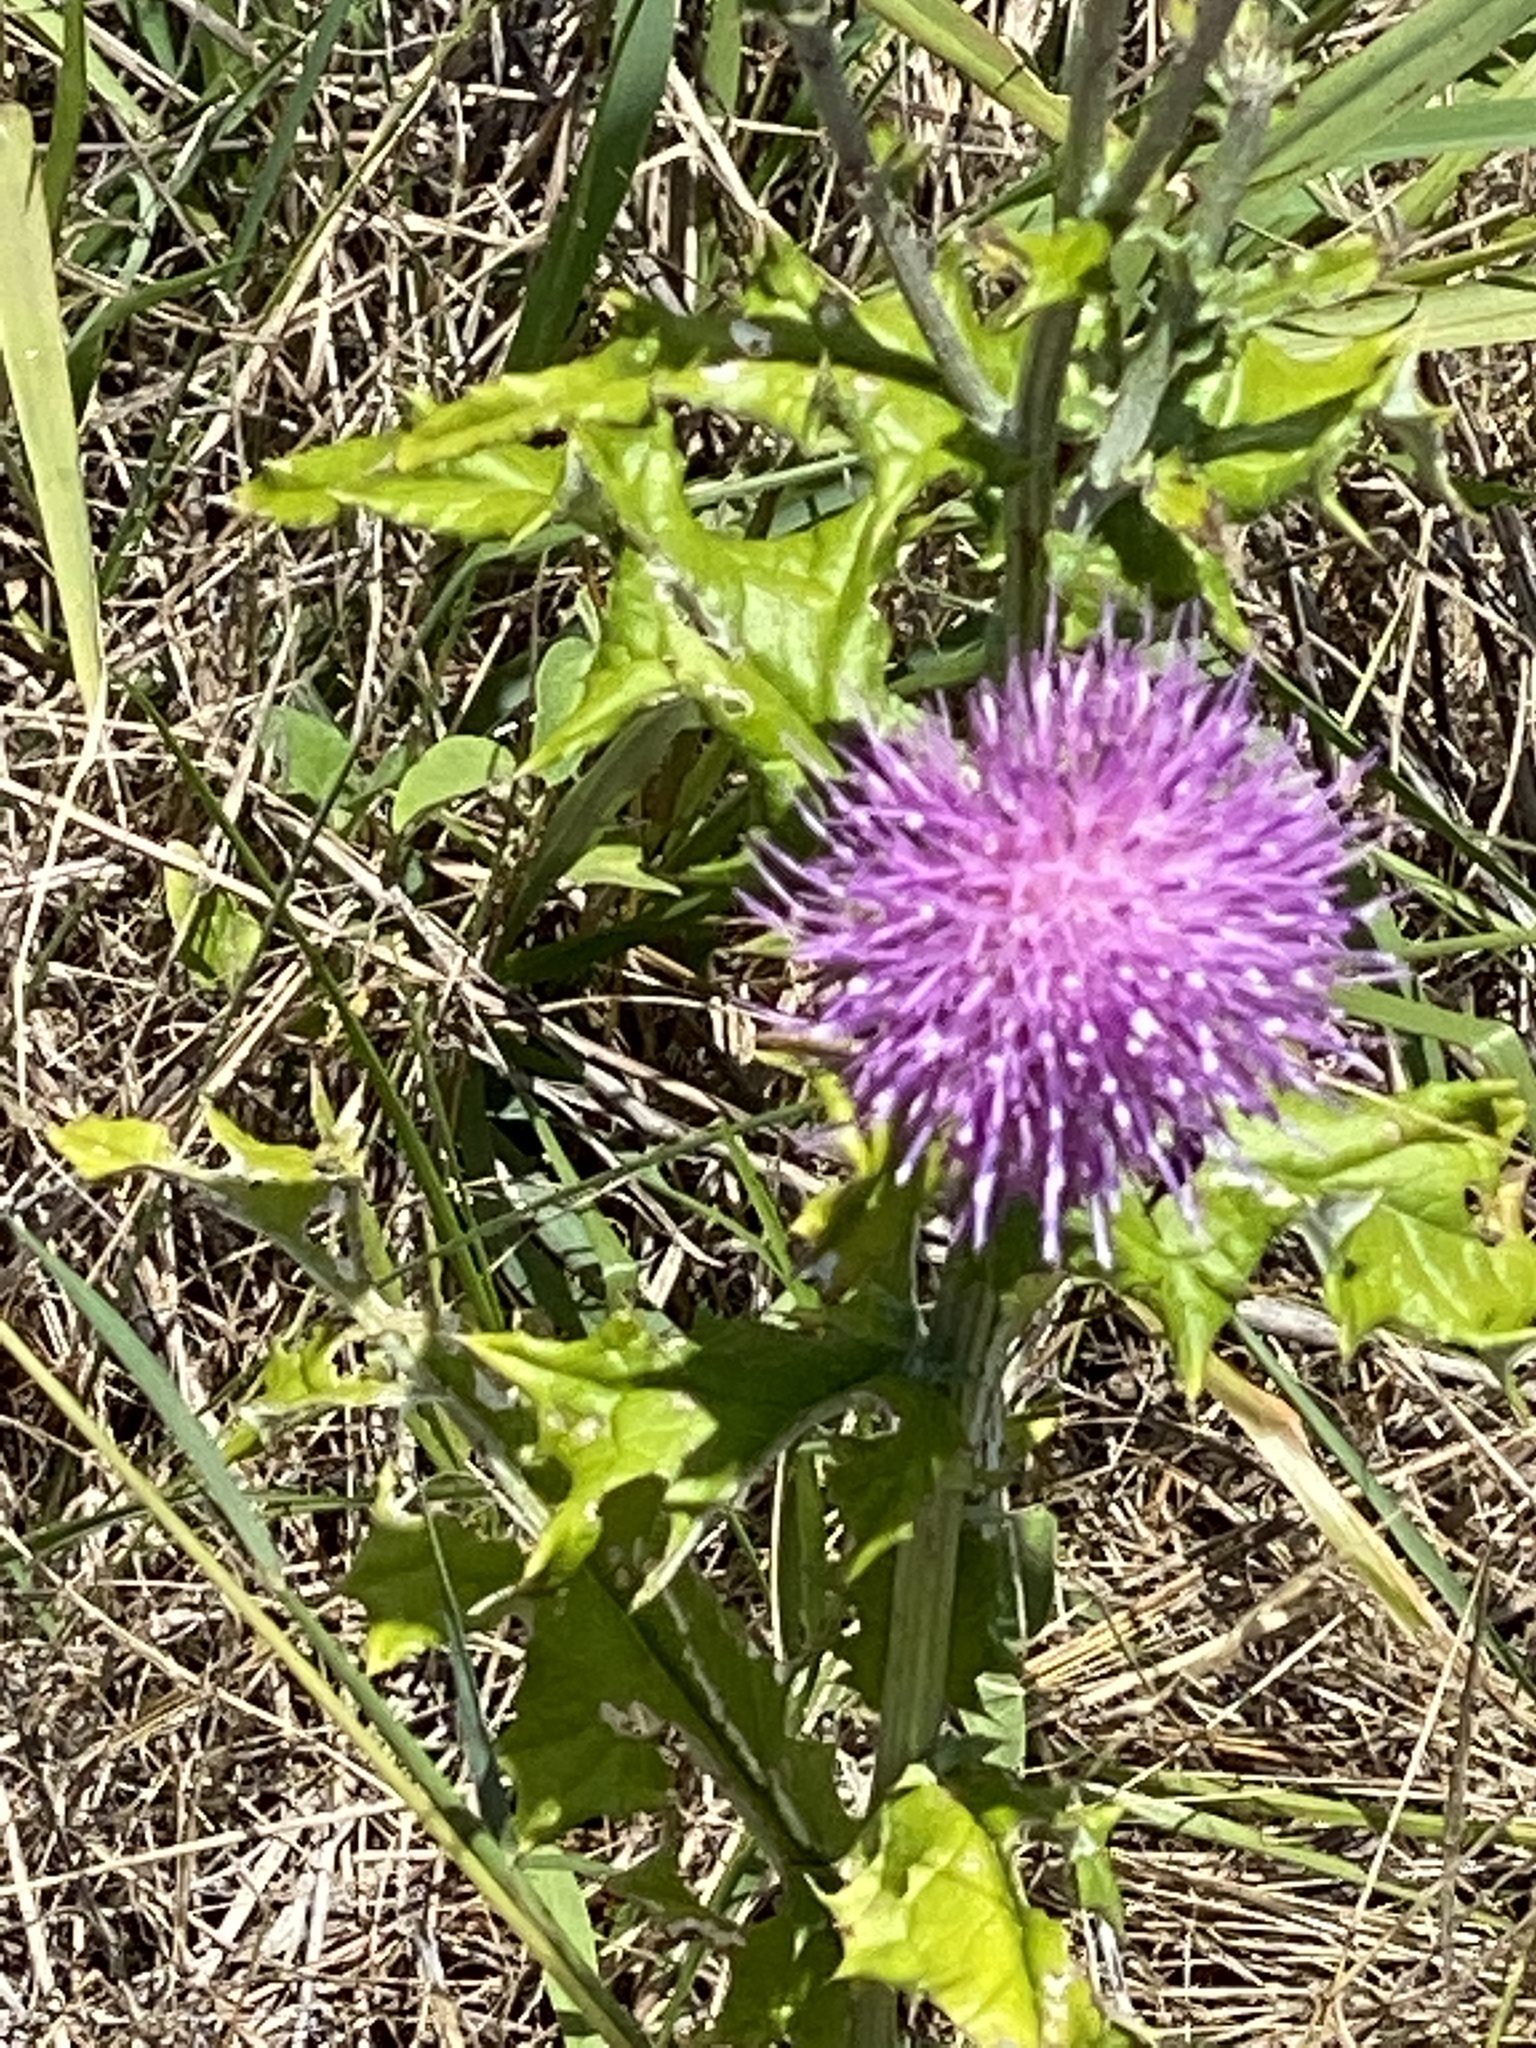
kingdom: Plantae
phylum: Tracheophyta
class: Magnoliopsida
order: Asterales
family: Asteraceae
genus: Cirsium
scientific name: Cirsium texanum
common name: Texas purple thistle
